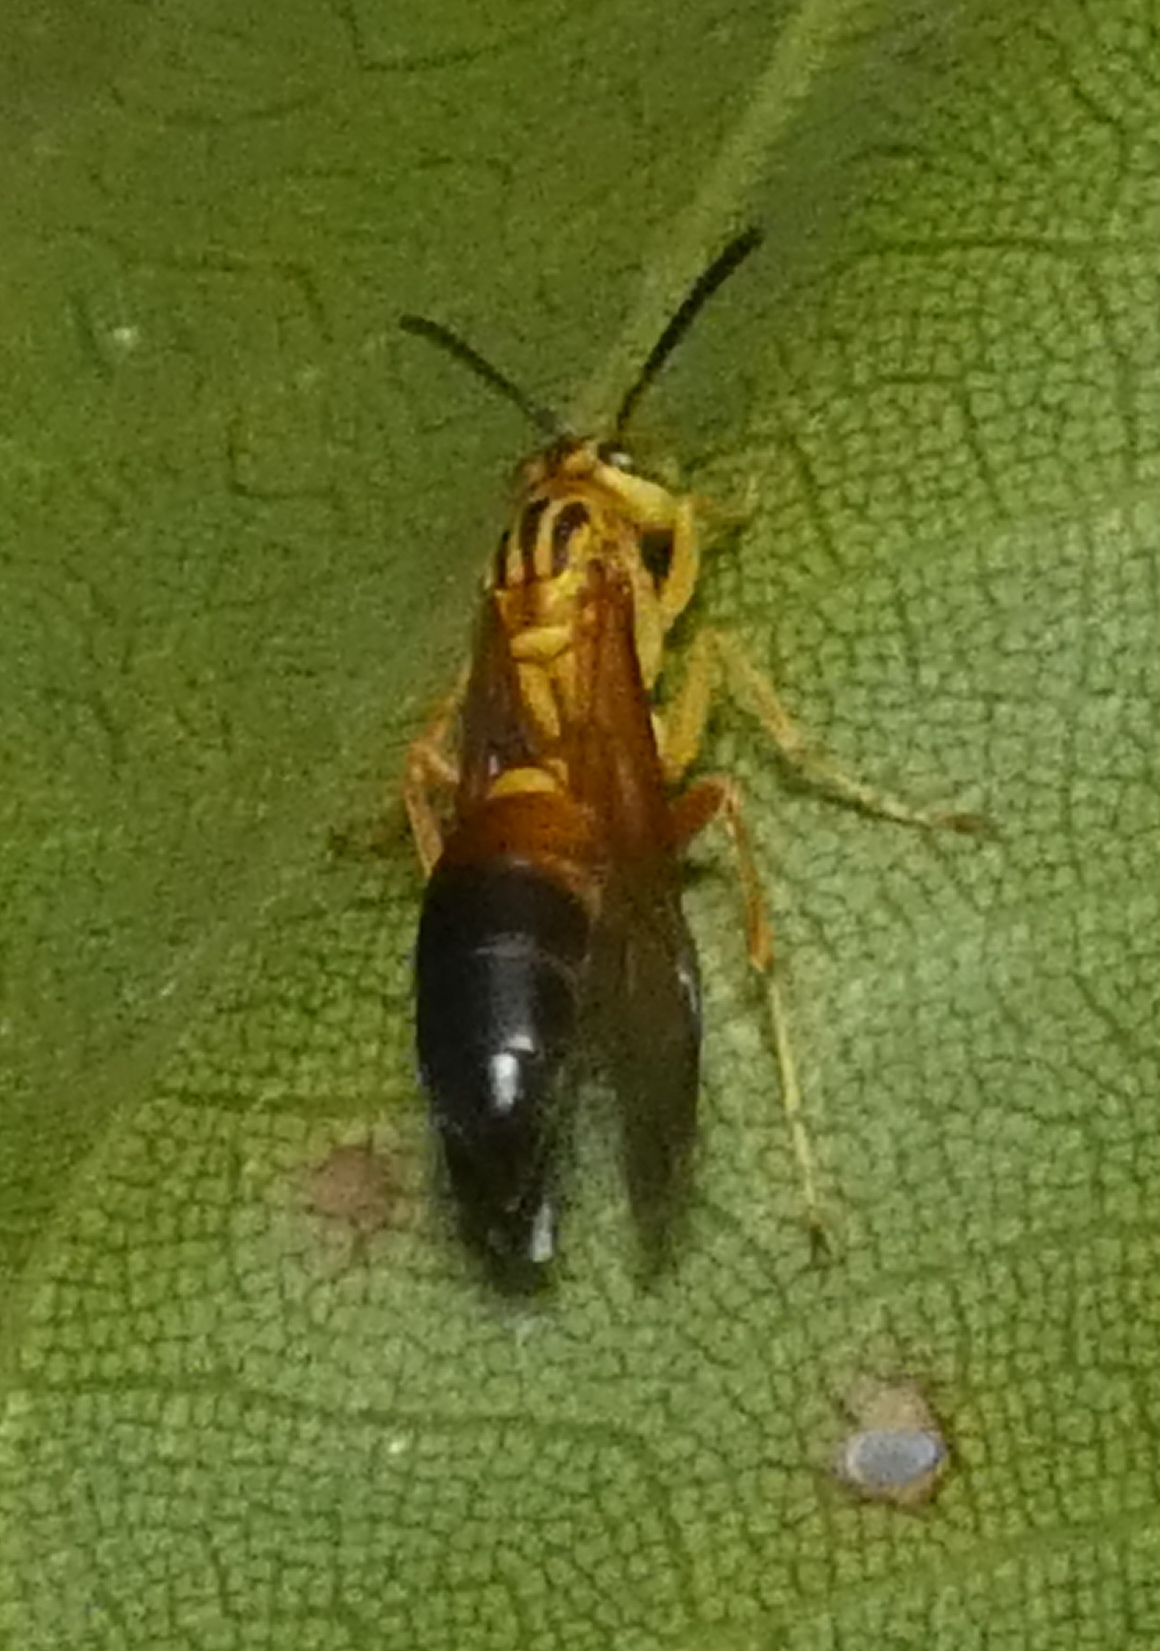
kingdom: Animalia
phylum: Arthropoda
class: Insecta
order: Hymenoptera
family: Vespidae
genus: Agelaia
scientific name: Agelaia pallipes
